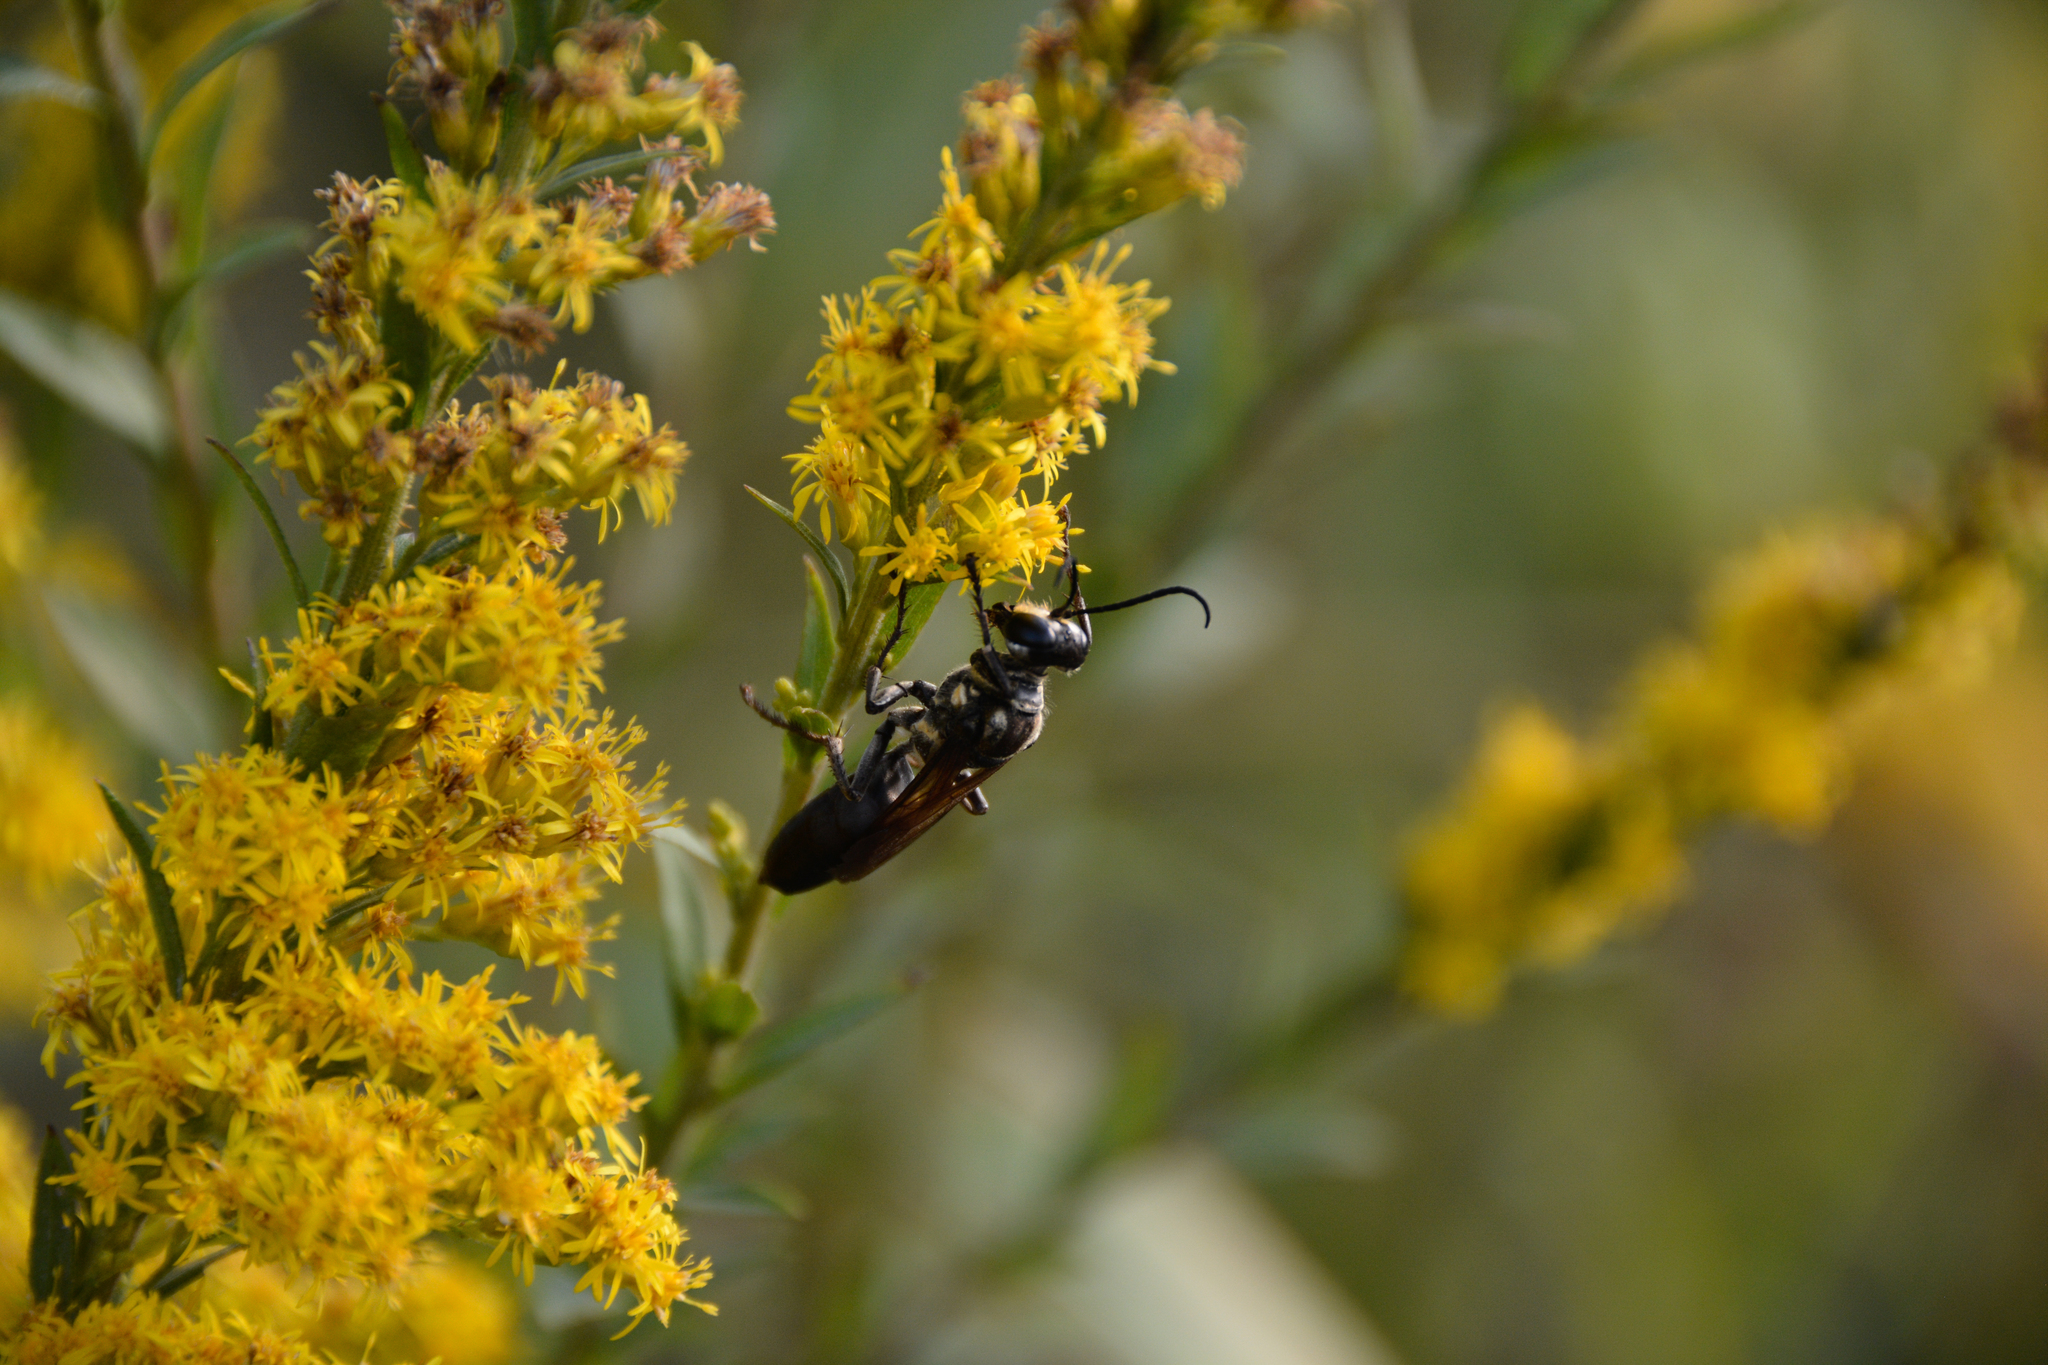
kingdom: Animalia
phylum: Arthropoda
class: Insecta
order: Hymenoptera
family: Sphecidae
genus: Sphex
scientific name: Sphex habenus
